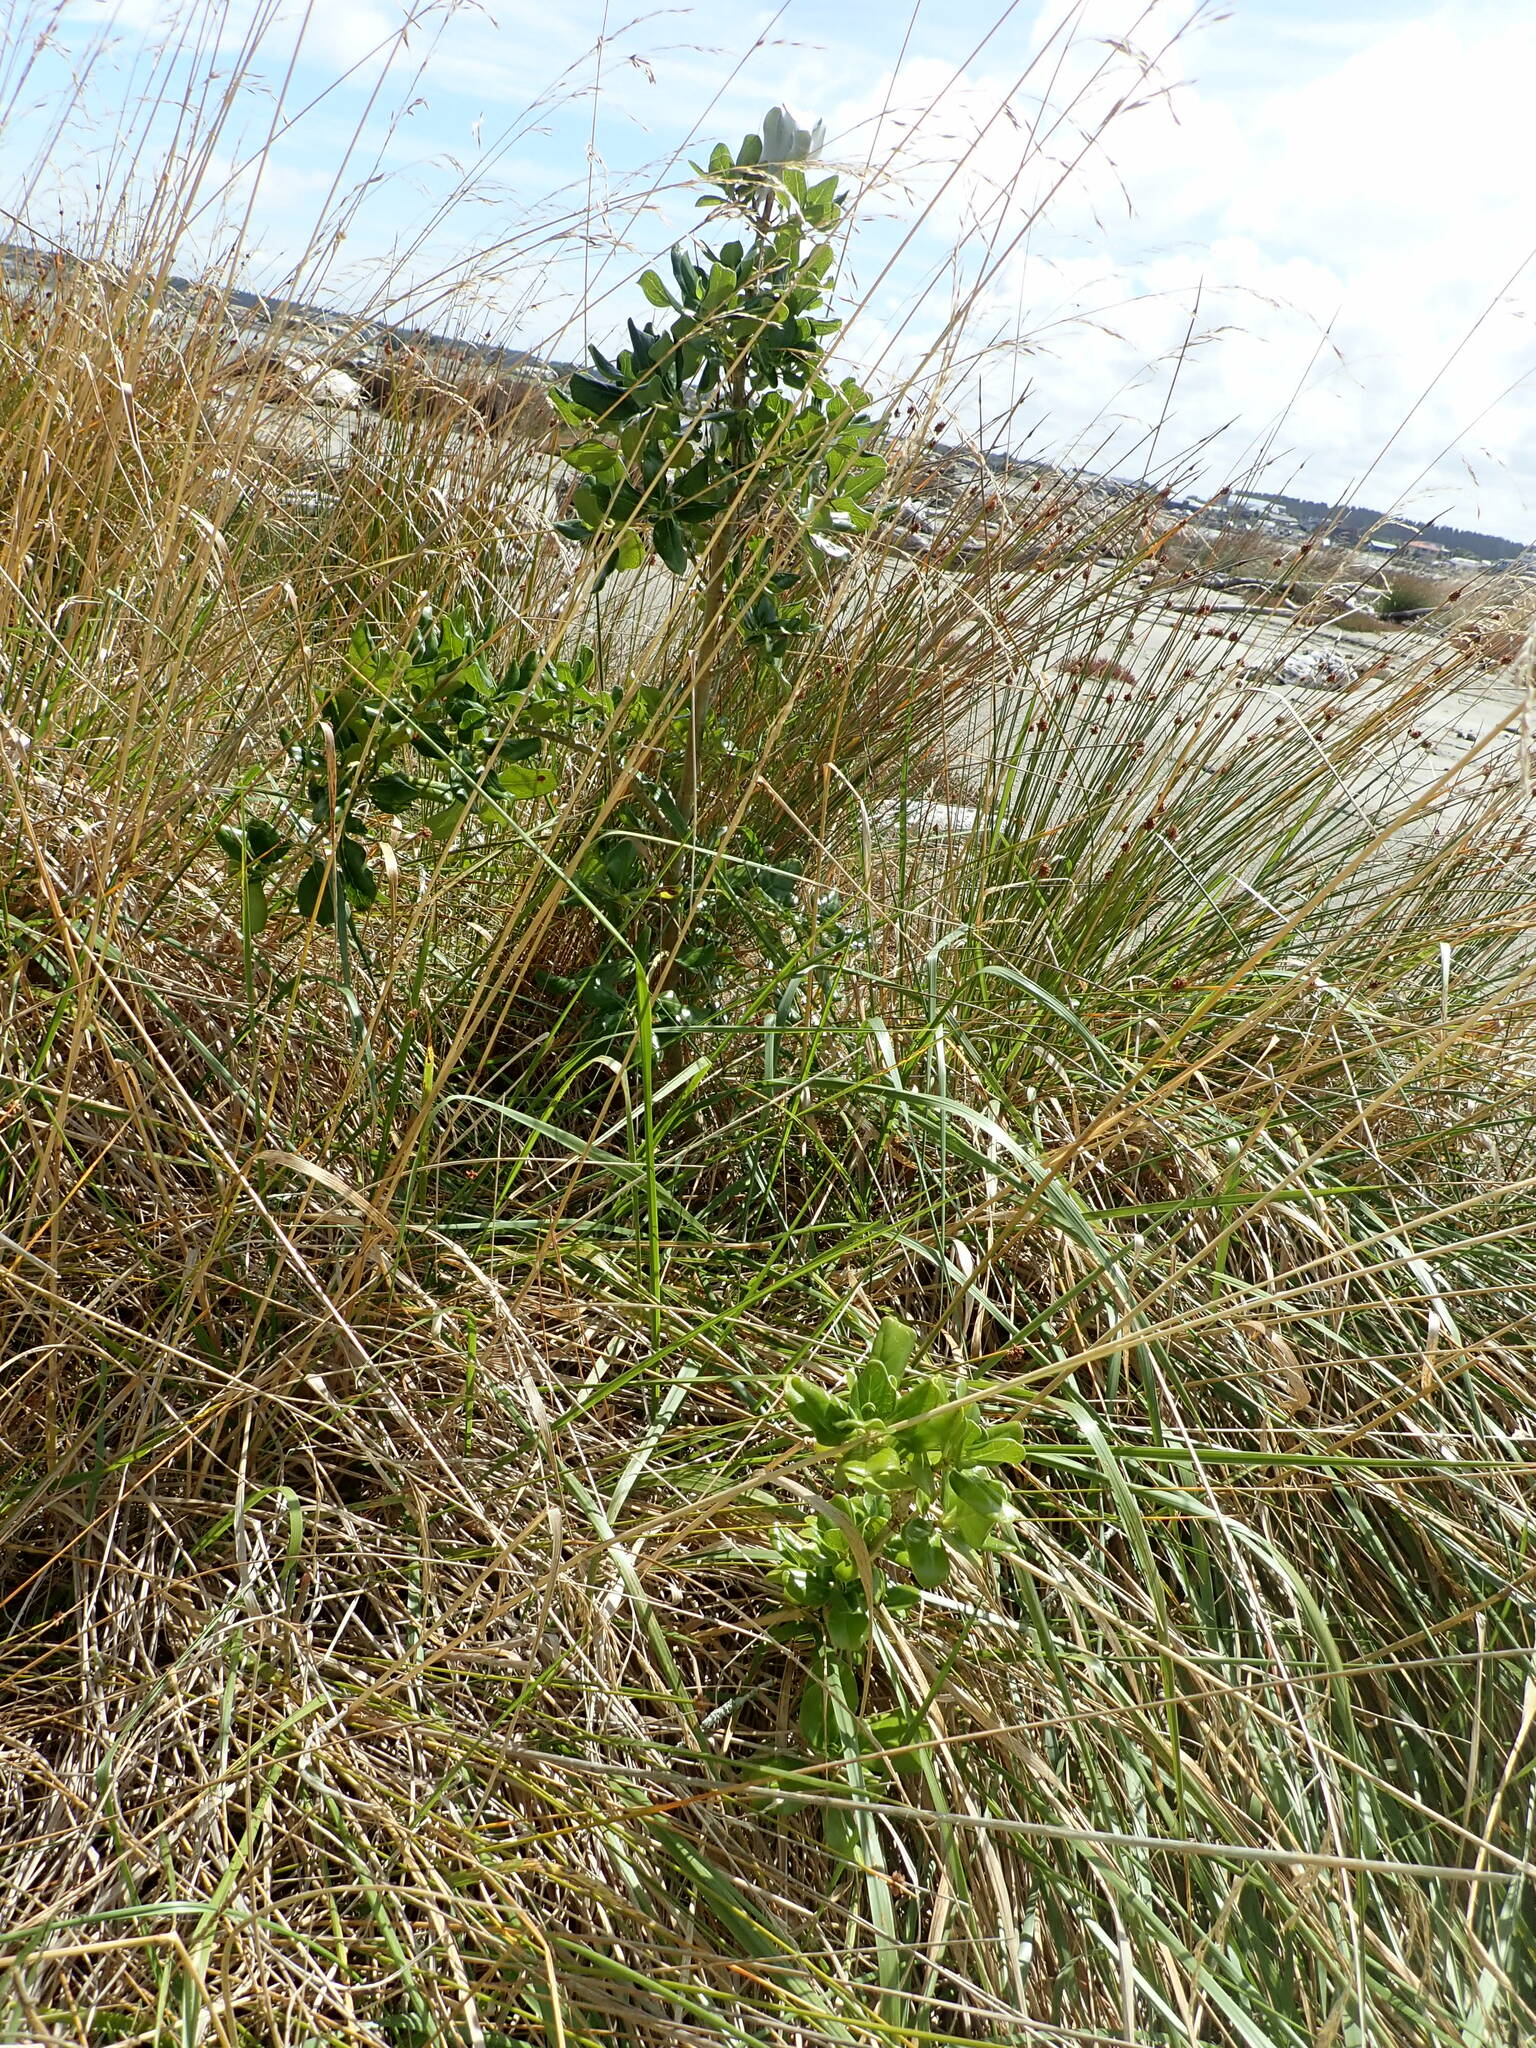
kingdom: Plantae
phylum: Tracheophyta
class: Magnoliopsida
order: Gentianales
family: Rubiaceae
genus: Coprosma
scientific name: Coprosma repens
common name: Tree bedstraw
